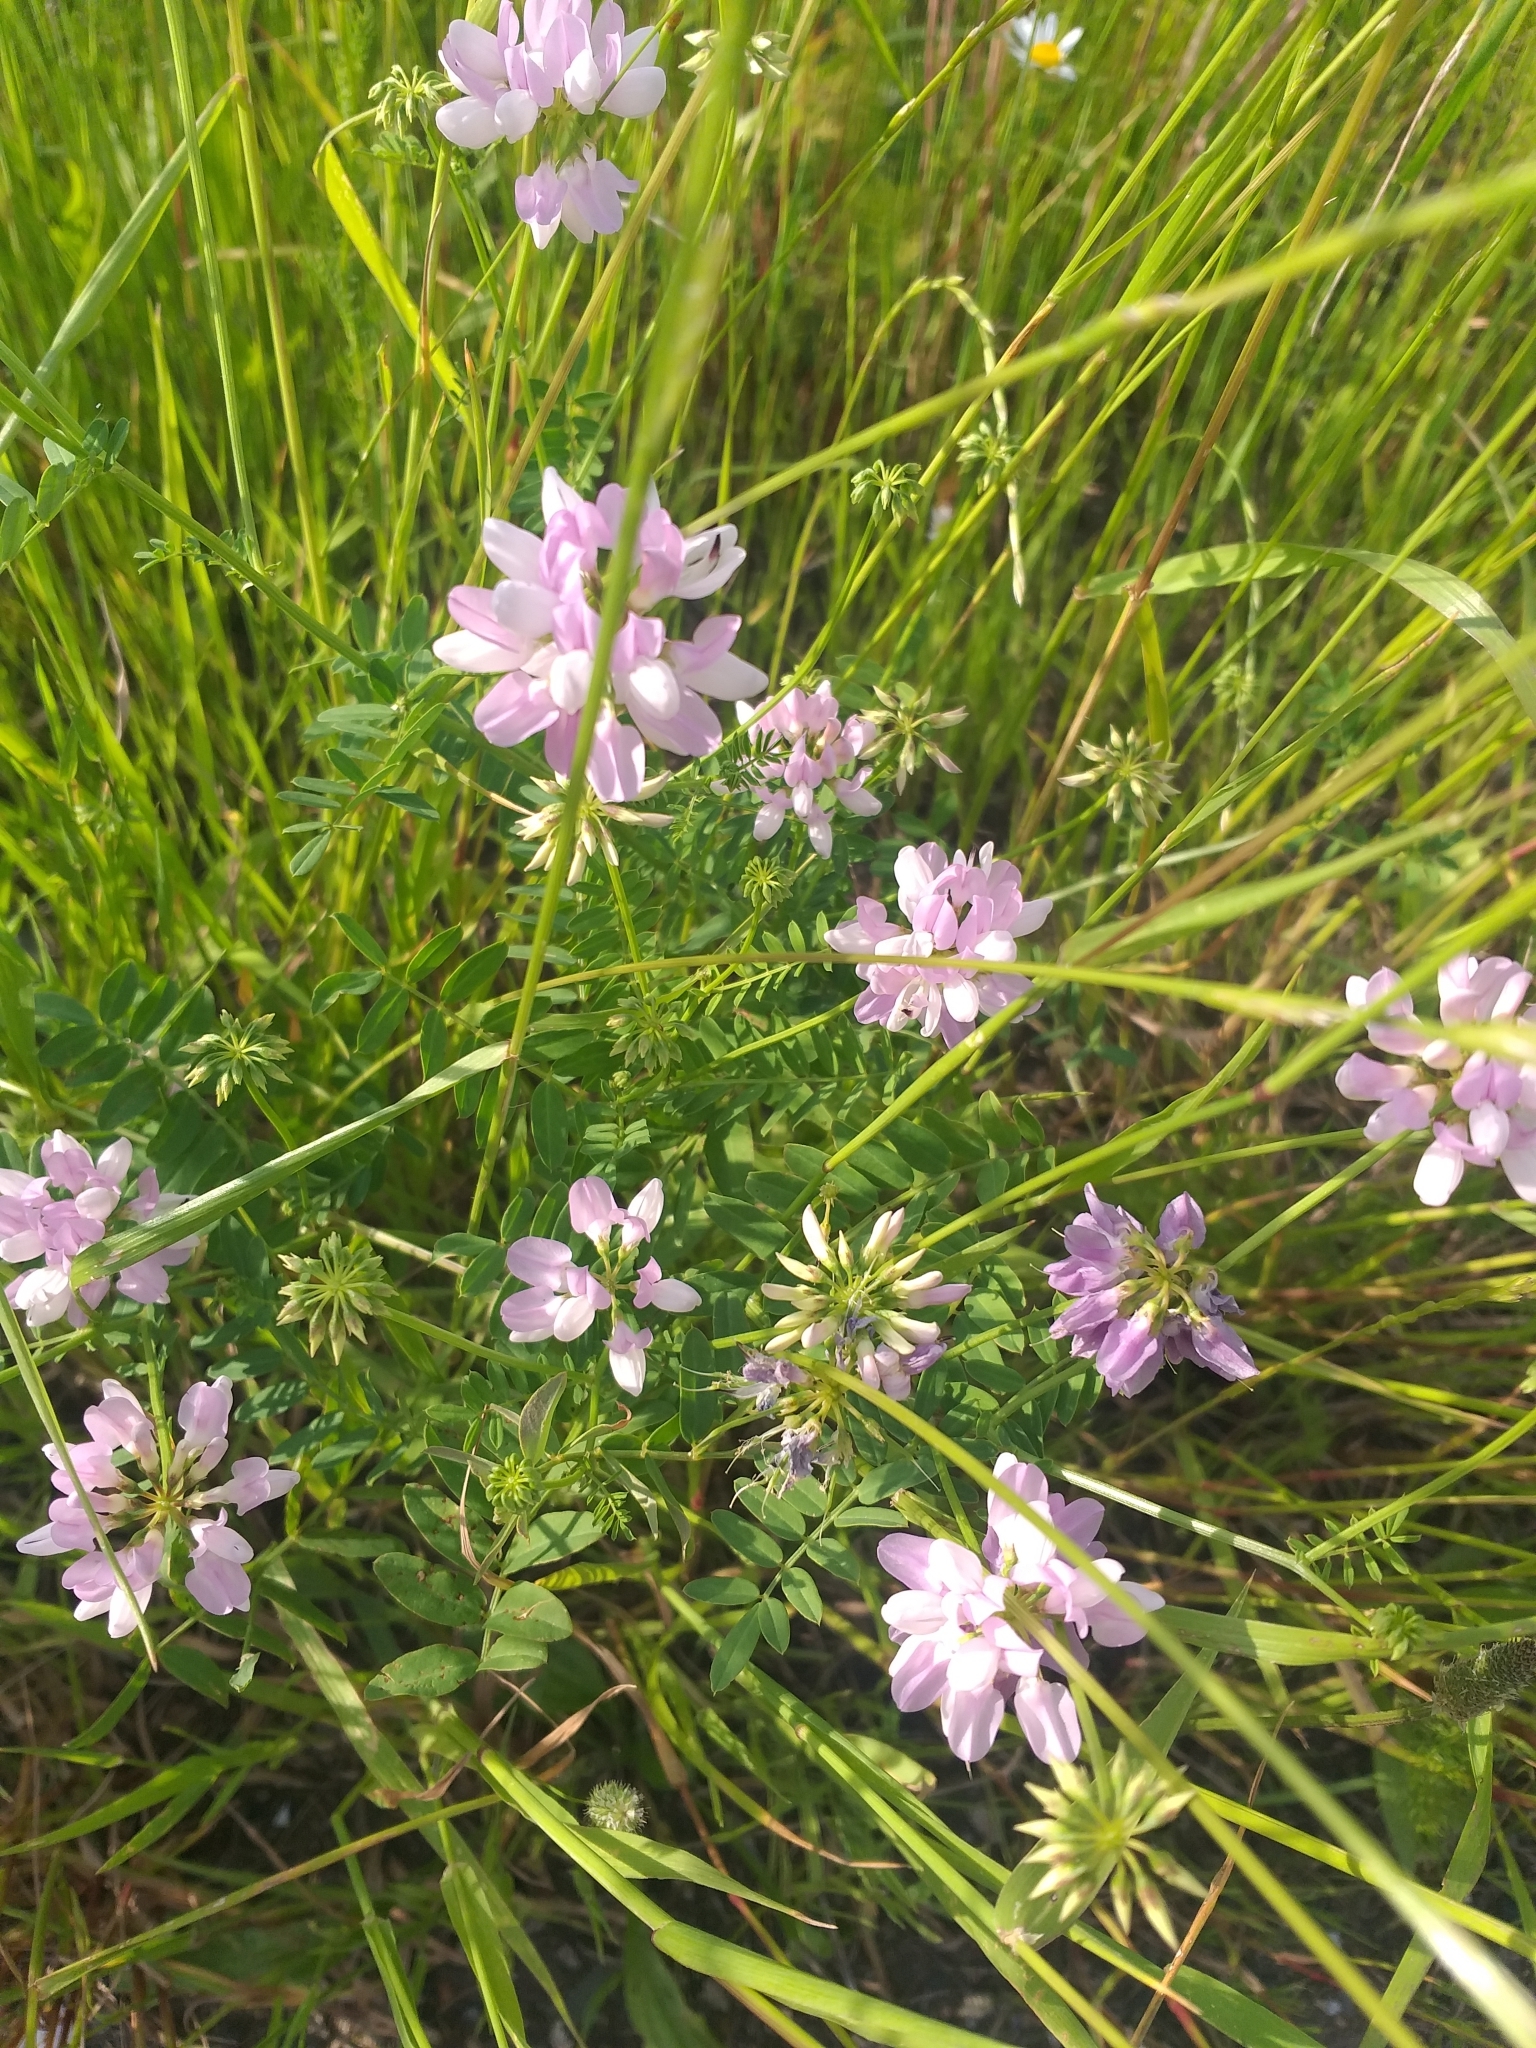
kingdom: Plantae
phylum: Tracheophyta
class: Magnoliopsida
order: Fabales
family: Fabaceae
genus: Coronilla
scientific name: Coronilla varia
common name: Crownvetch
